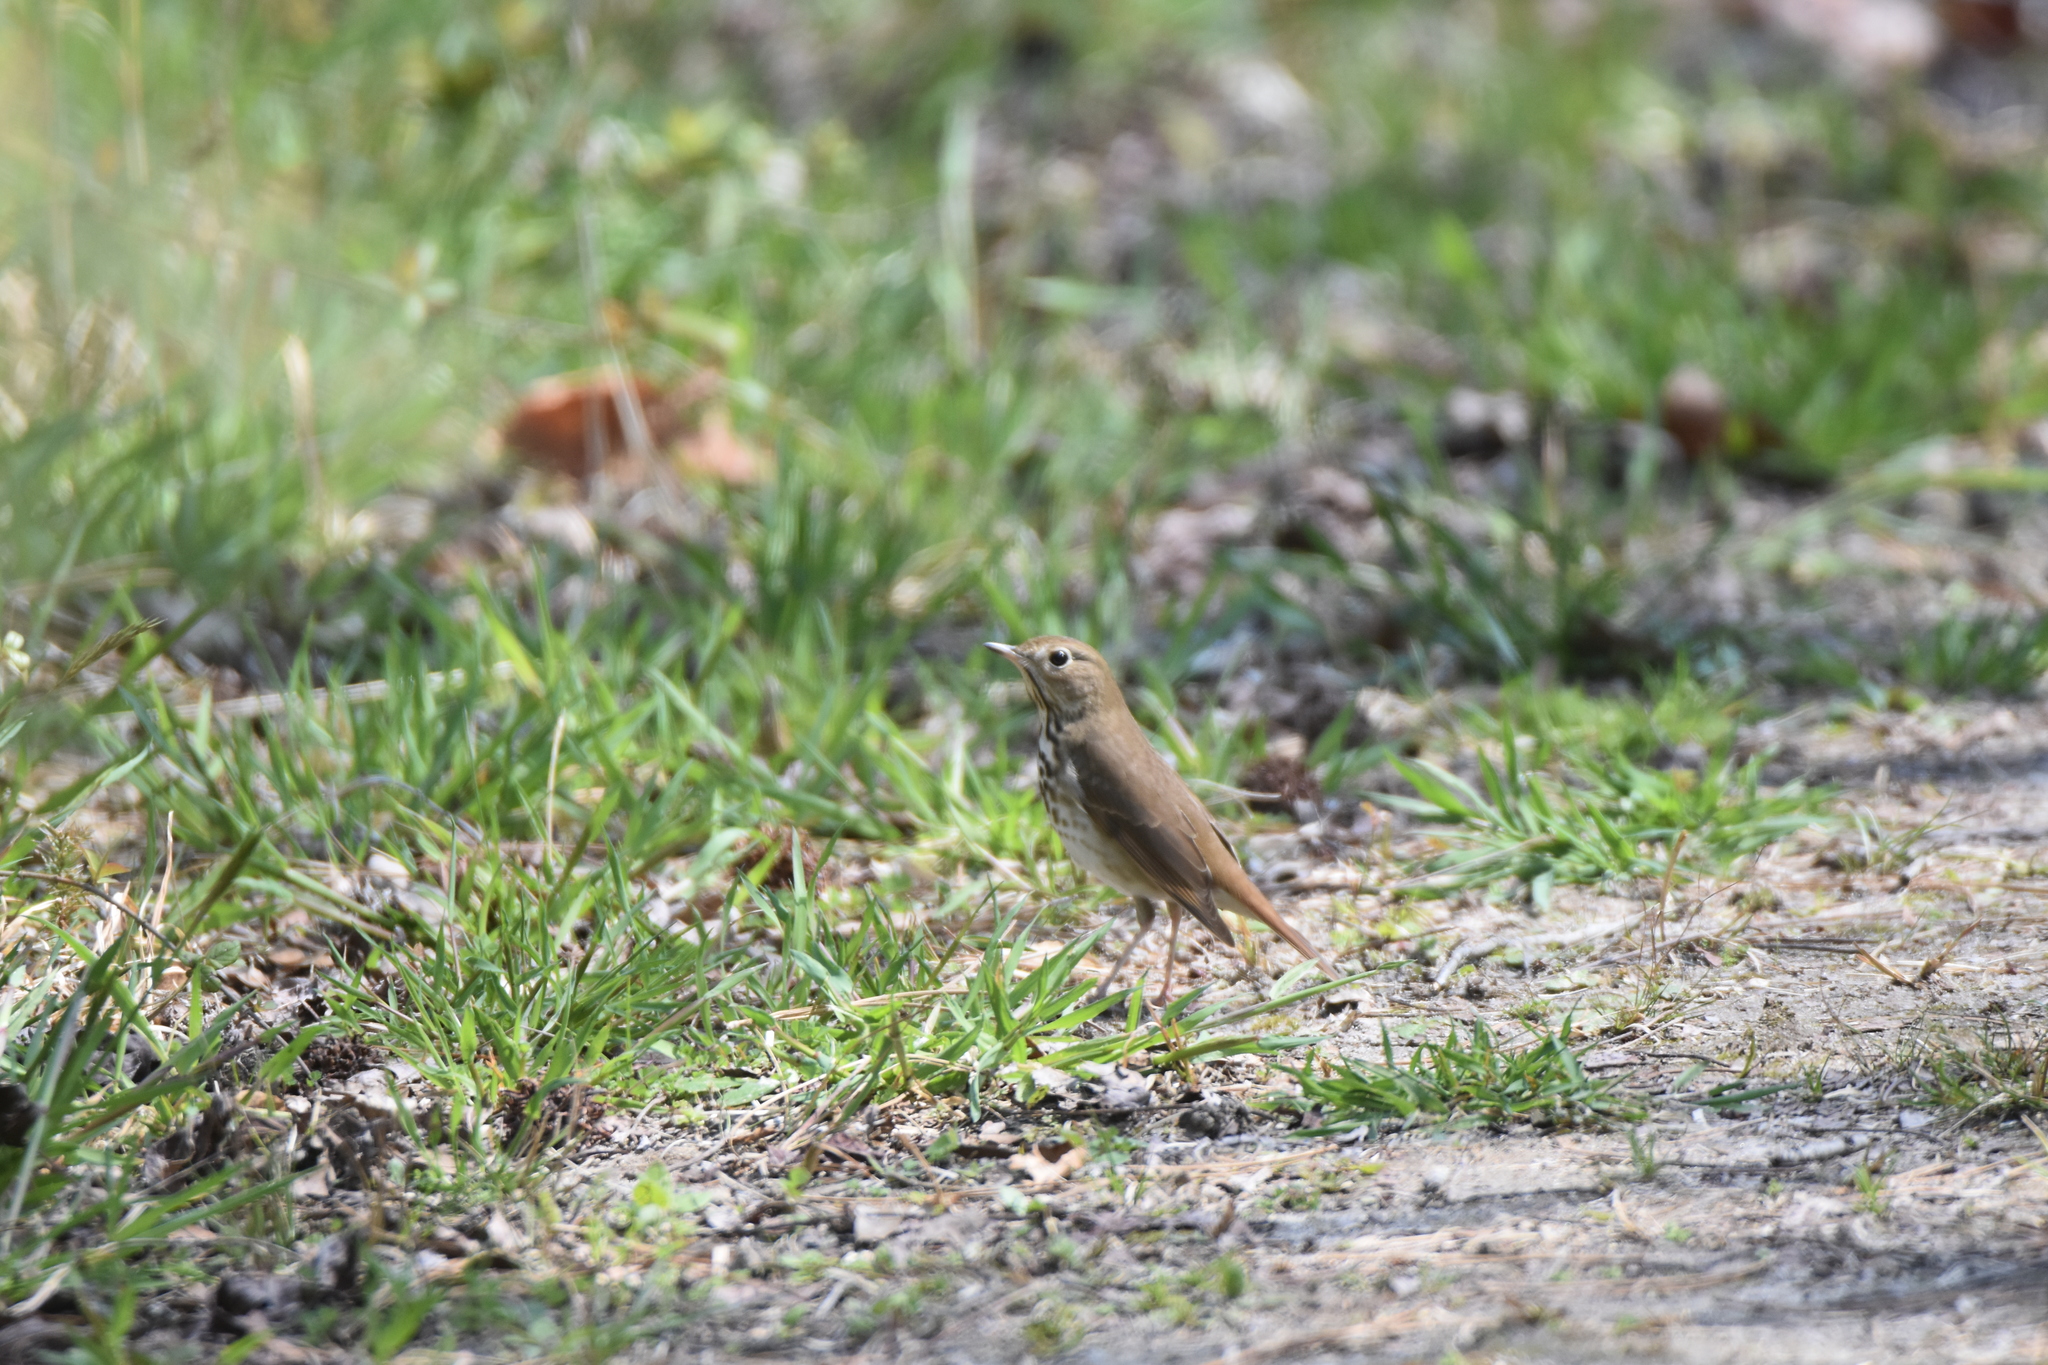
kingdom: Animalia
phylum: Chordata
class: Aves
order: Passeriformes
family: Turdidae
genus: Catharus
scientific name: Catharus guttatus
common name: Hermit thrush
